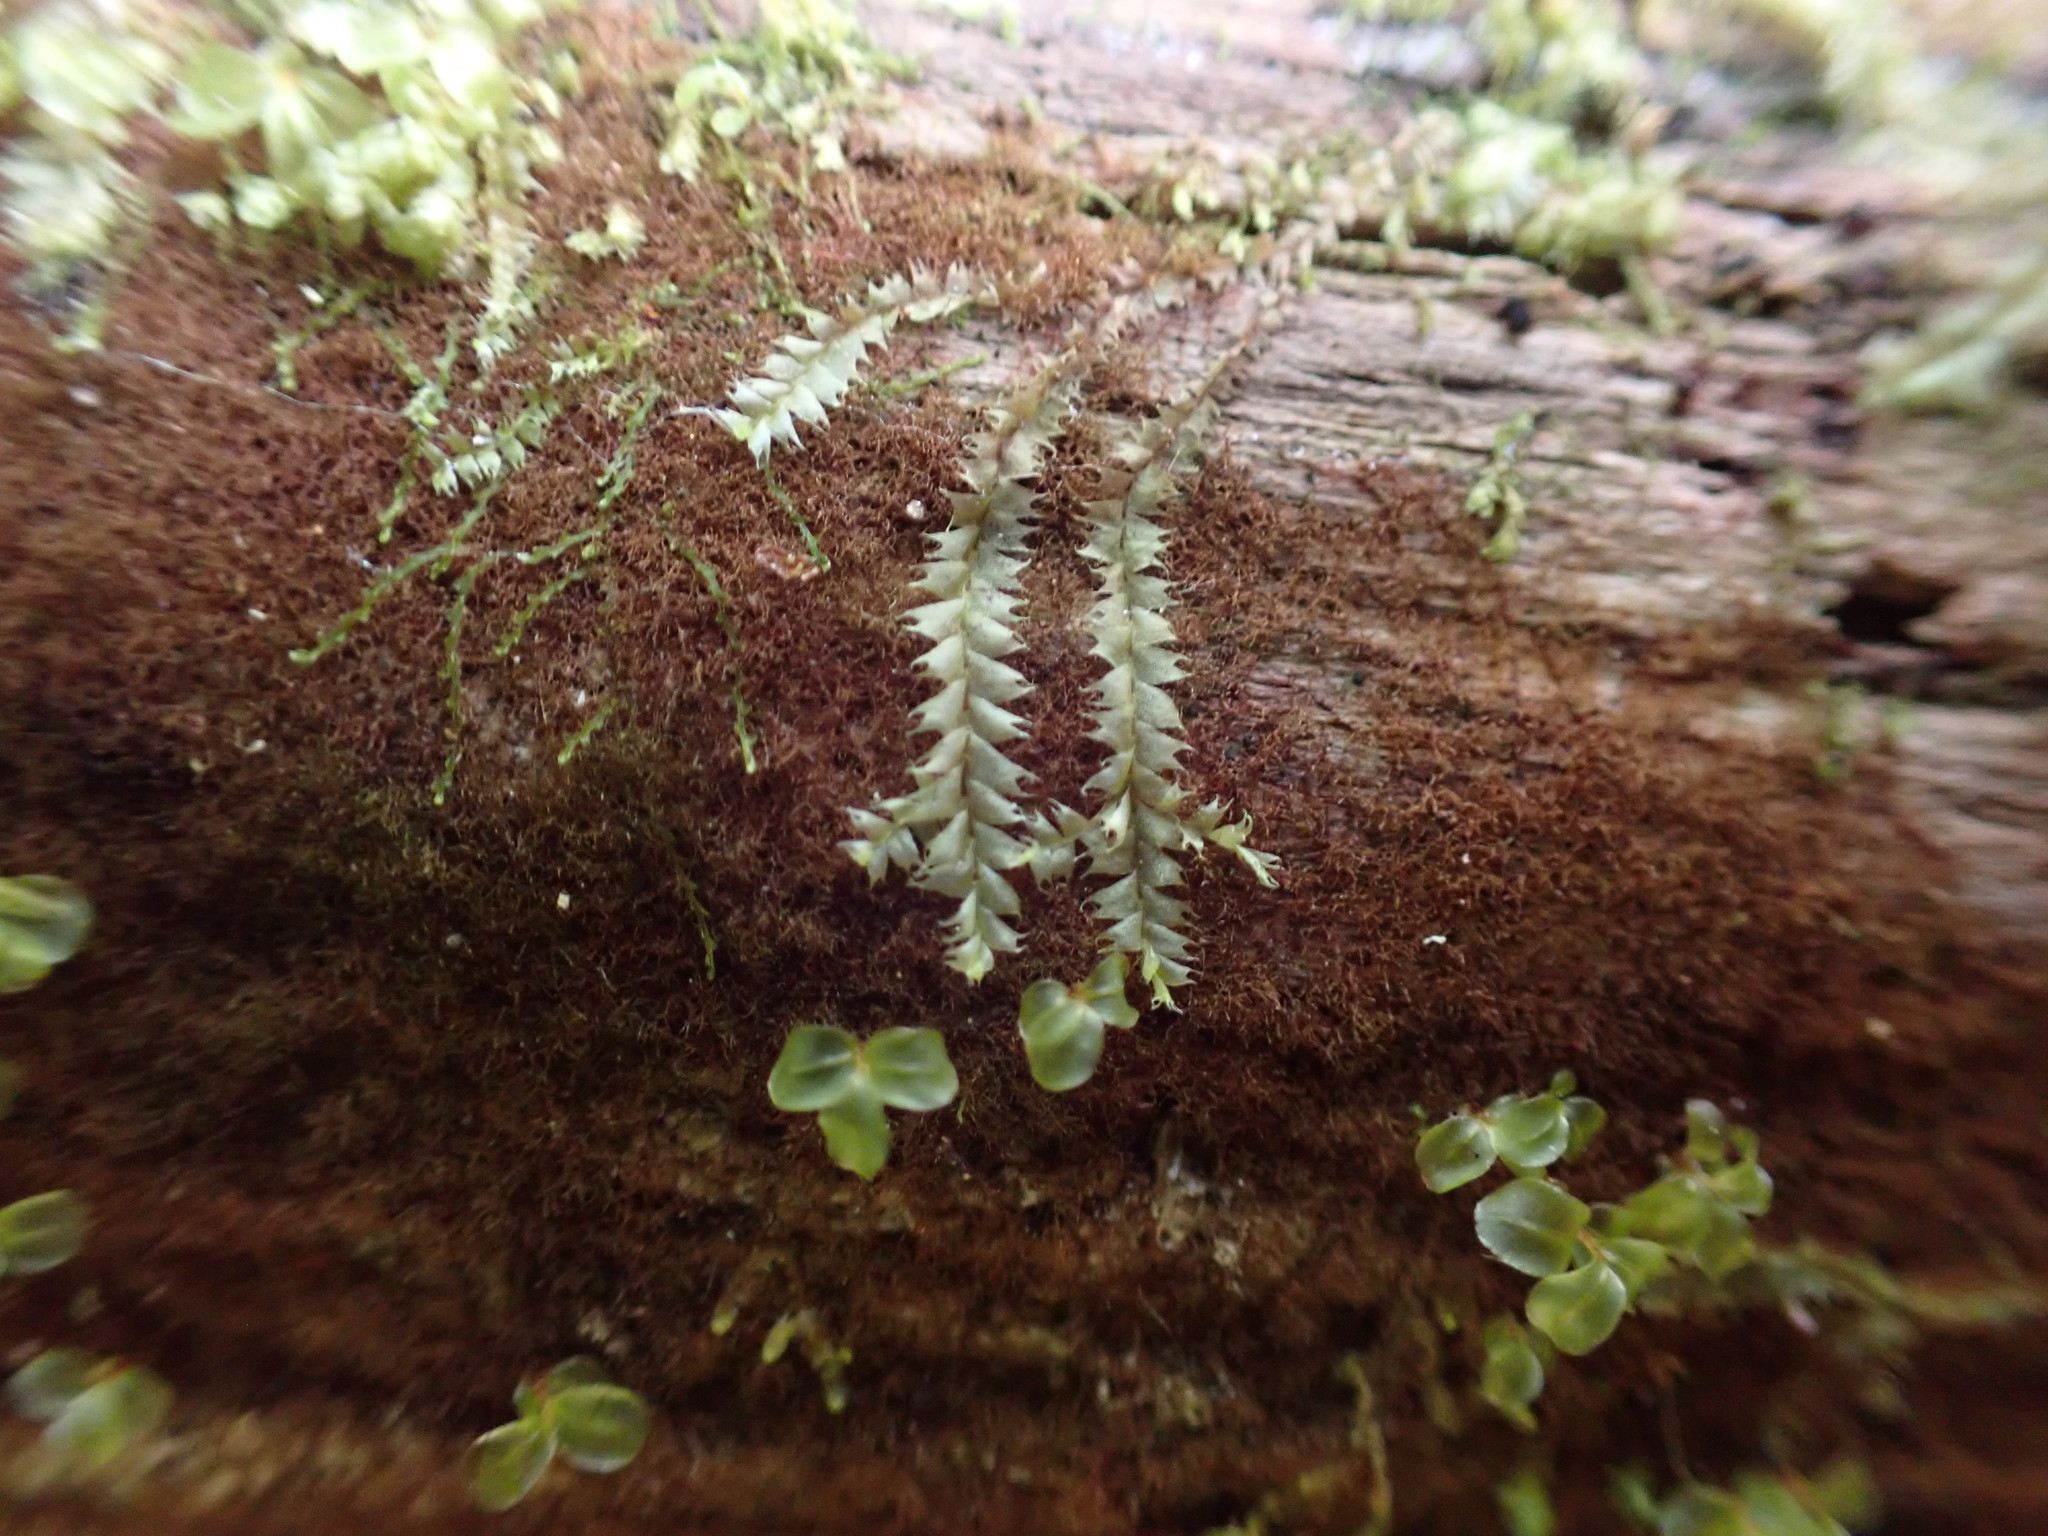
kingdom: Plantae
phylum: Marchantiophyta
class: Jungermanniopsida
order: Jungermanniales
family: Lophocoleaceae
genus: Lophocolea
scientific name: Lophocolea bidentata
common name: Bifid crestwort
